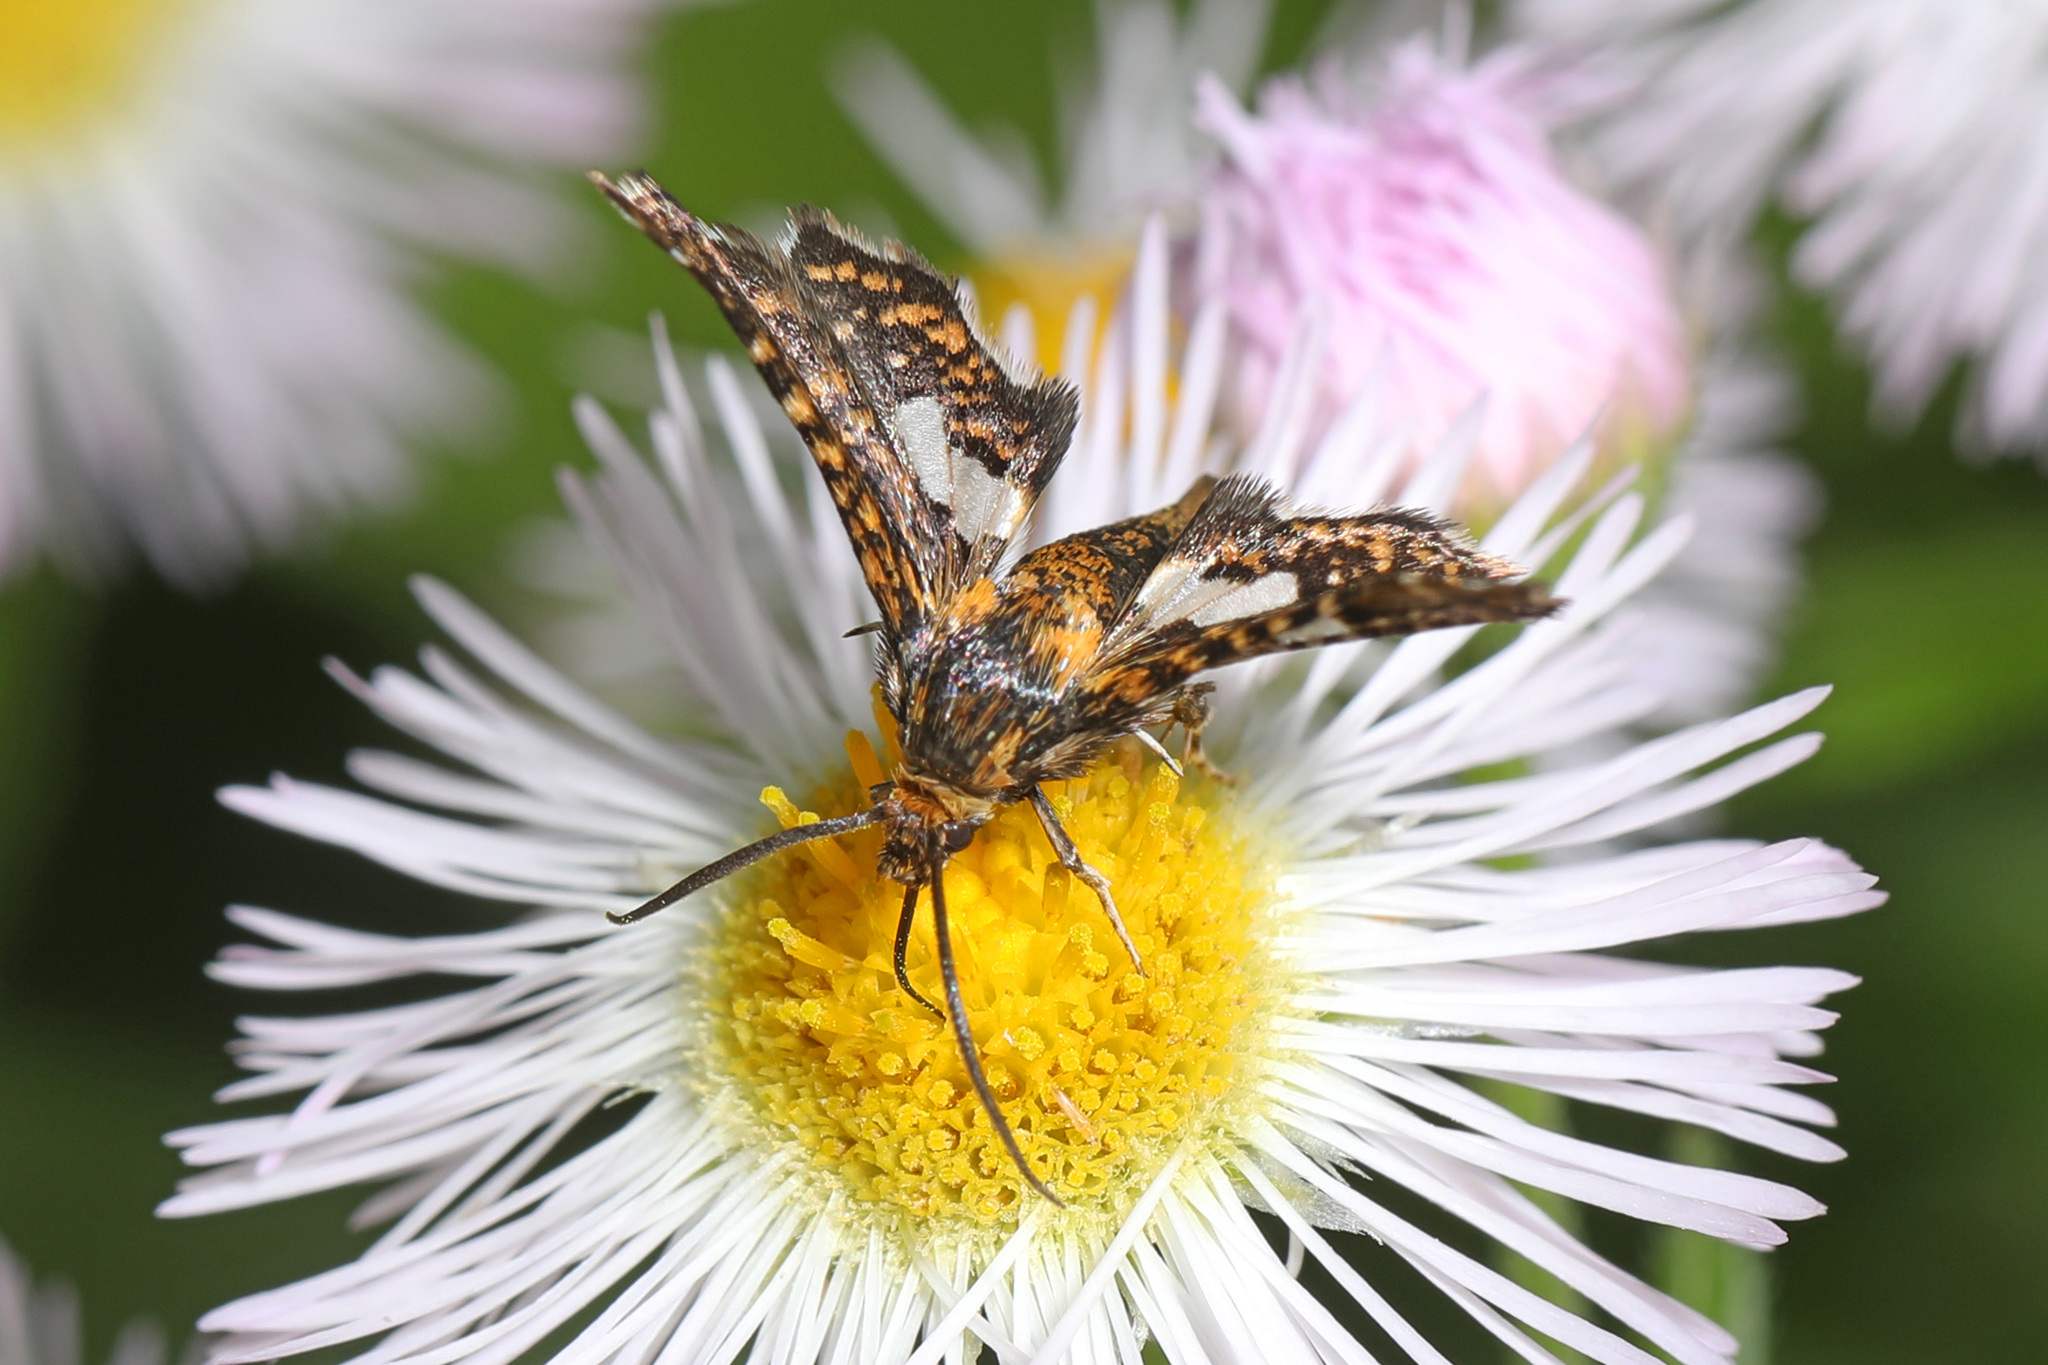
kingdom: Animalia
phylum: Arthropoda
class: Insecta
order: Lepidoptera
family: Thyrididae
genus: Thyris
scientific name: Thyris maculata
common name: Spotted thyris moth
